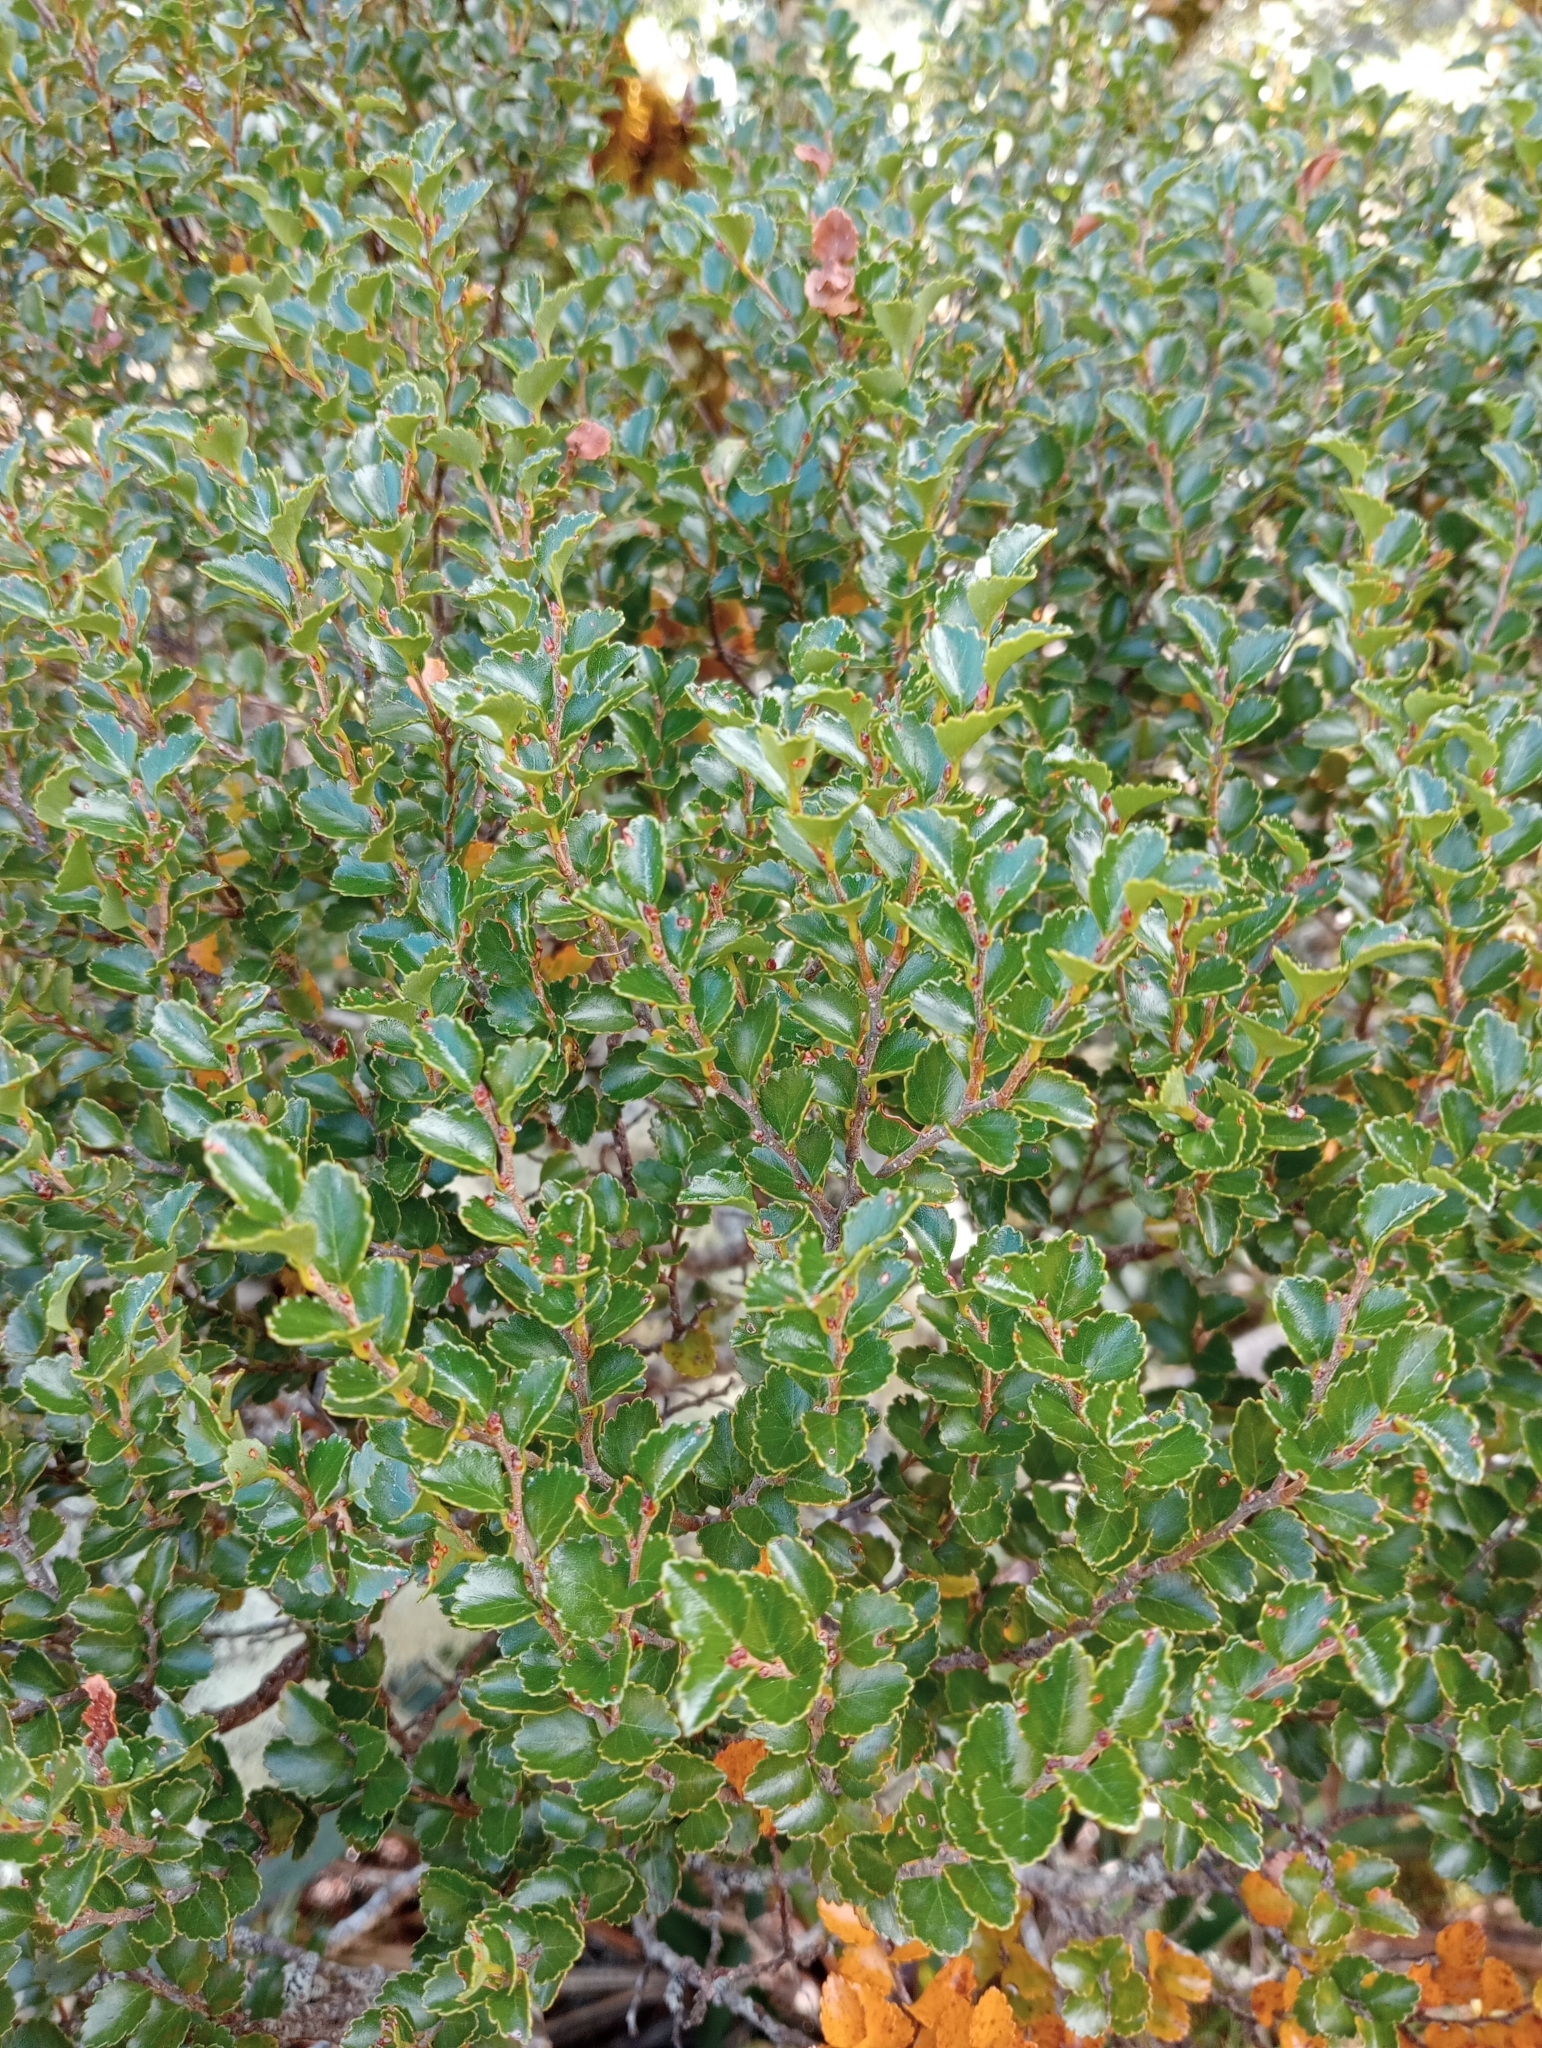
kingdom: Plantae
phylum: Tracheophyta
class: Magnoliopsida
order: Fagales
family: Nothofagaceae
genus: Nothofagus
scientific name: Nothofagus menziesii
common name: Silver beech
